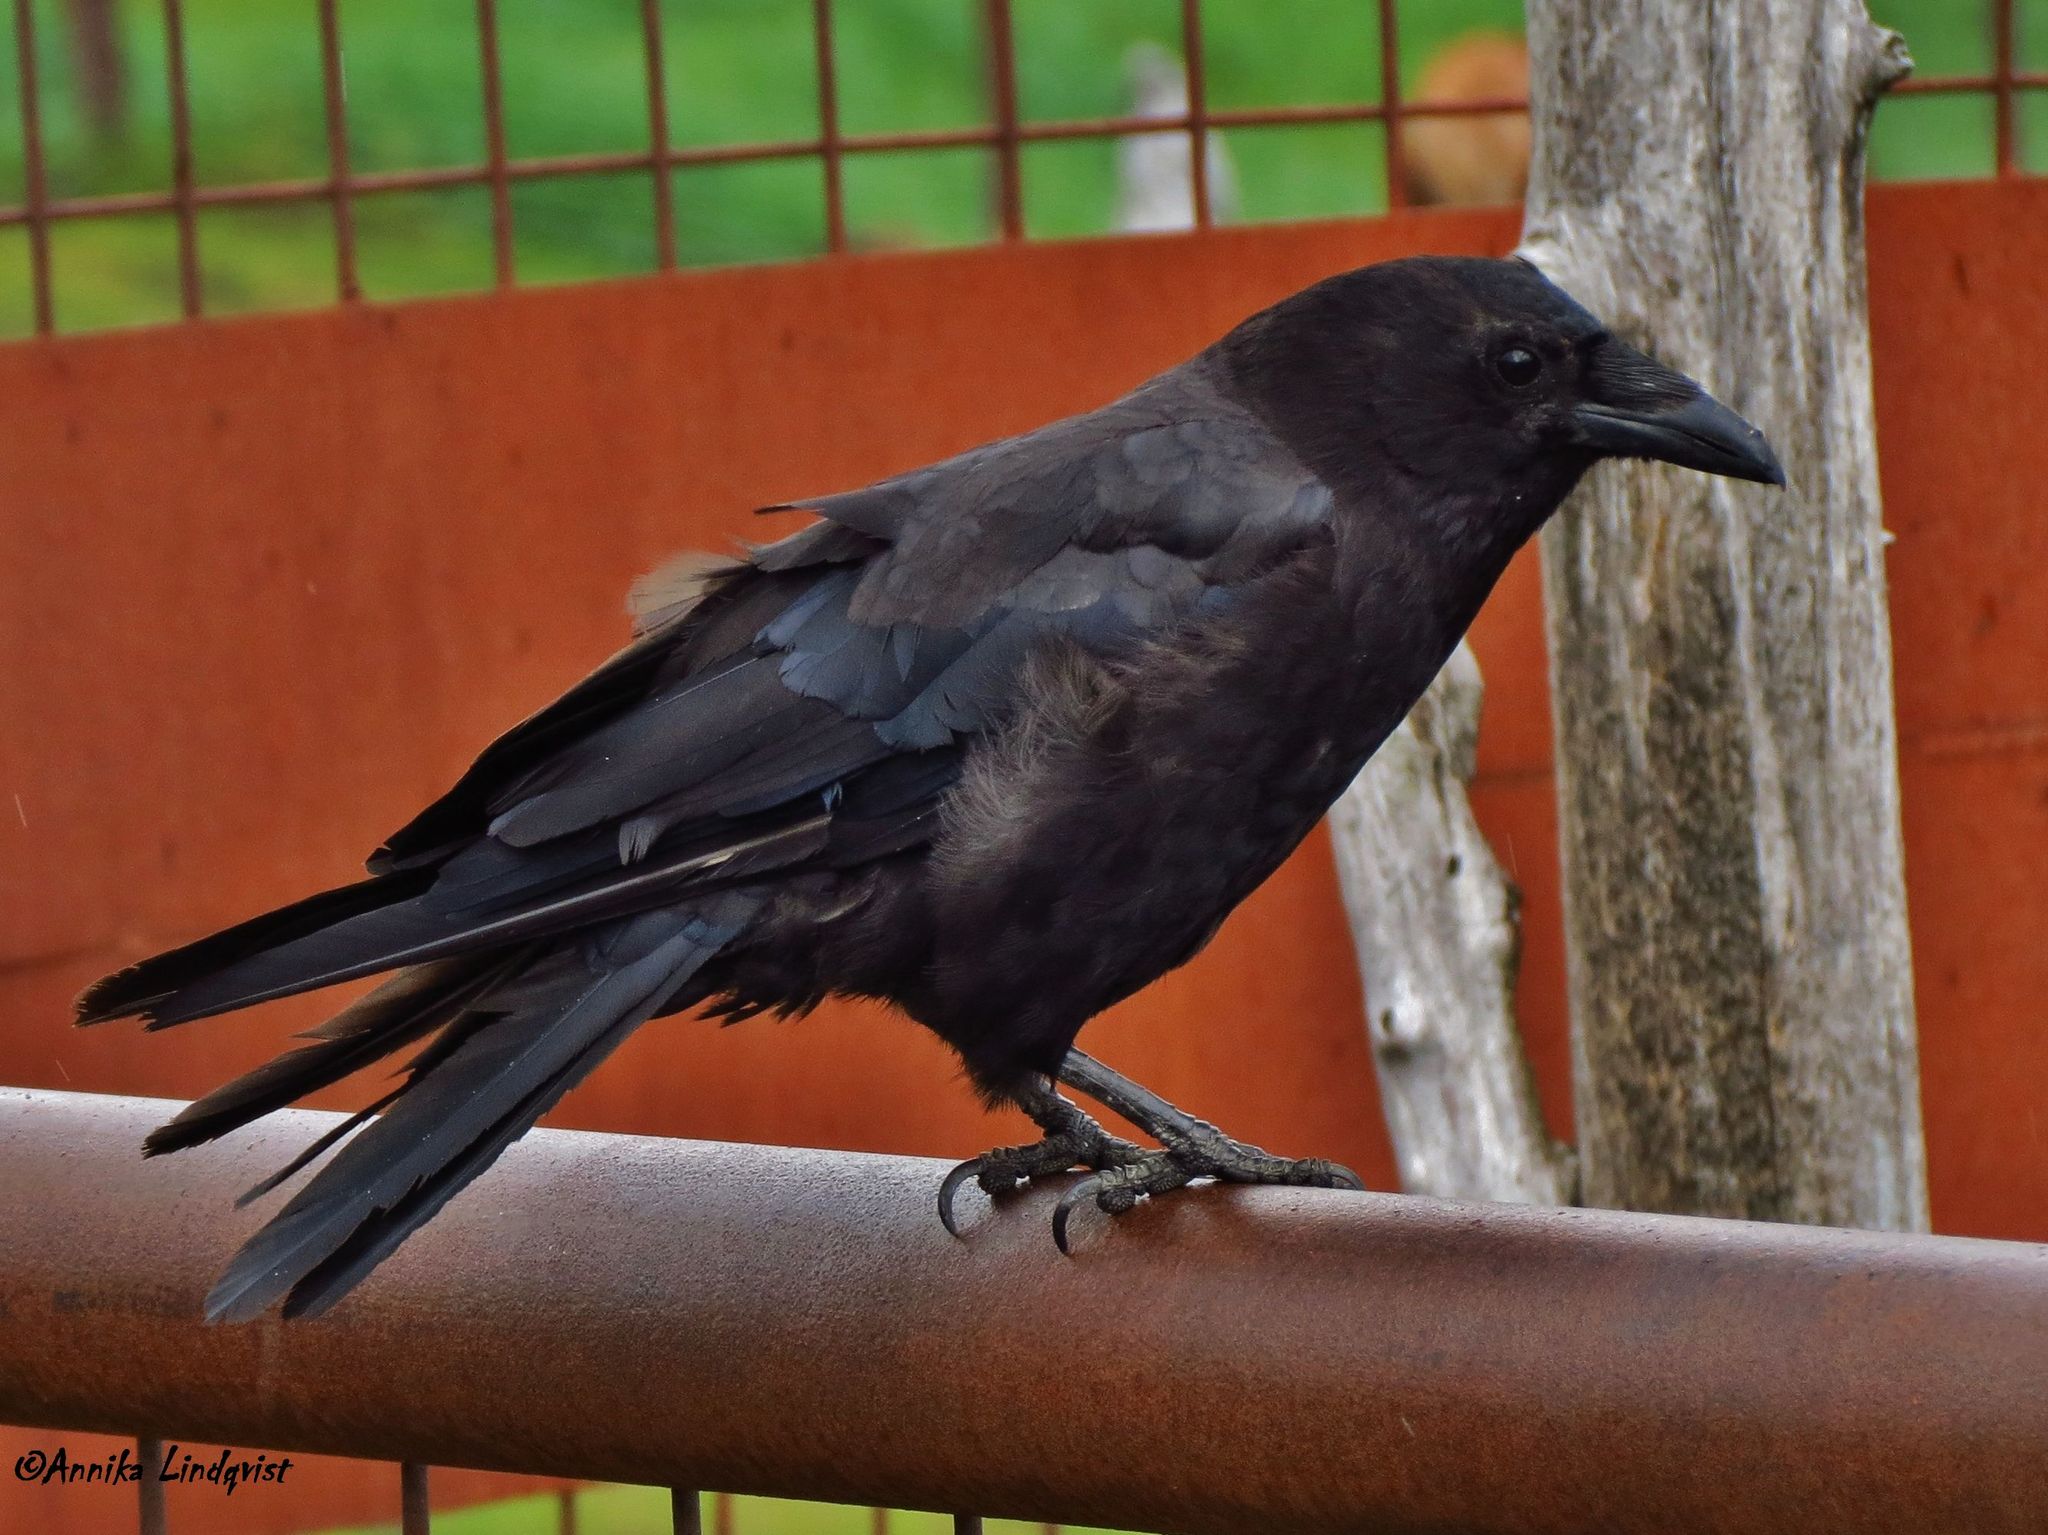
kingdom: Animalia
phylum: Chordata
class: Aves
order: Passeriformes
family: Corvidae
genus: Corvus
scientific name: Corvus brachyrhynchos
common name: American crow
